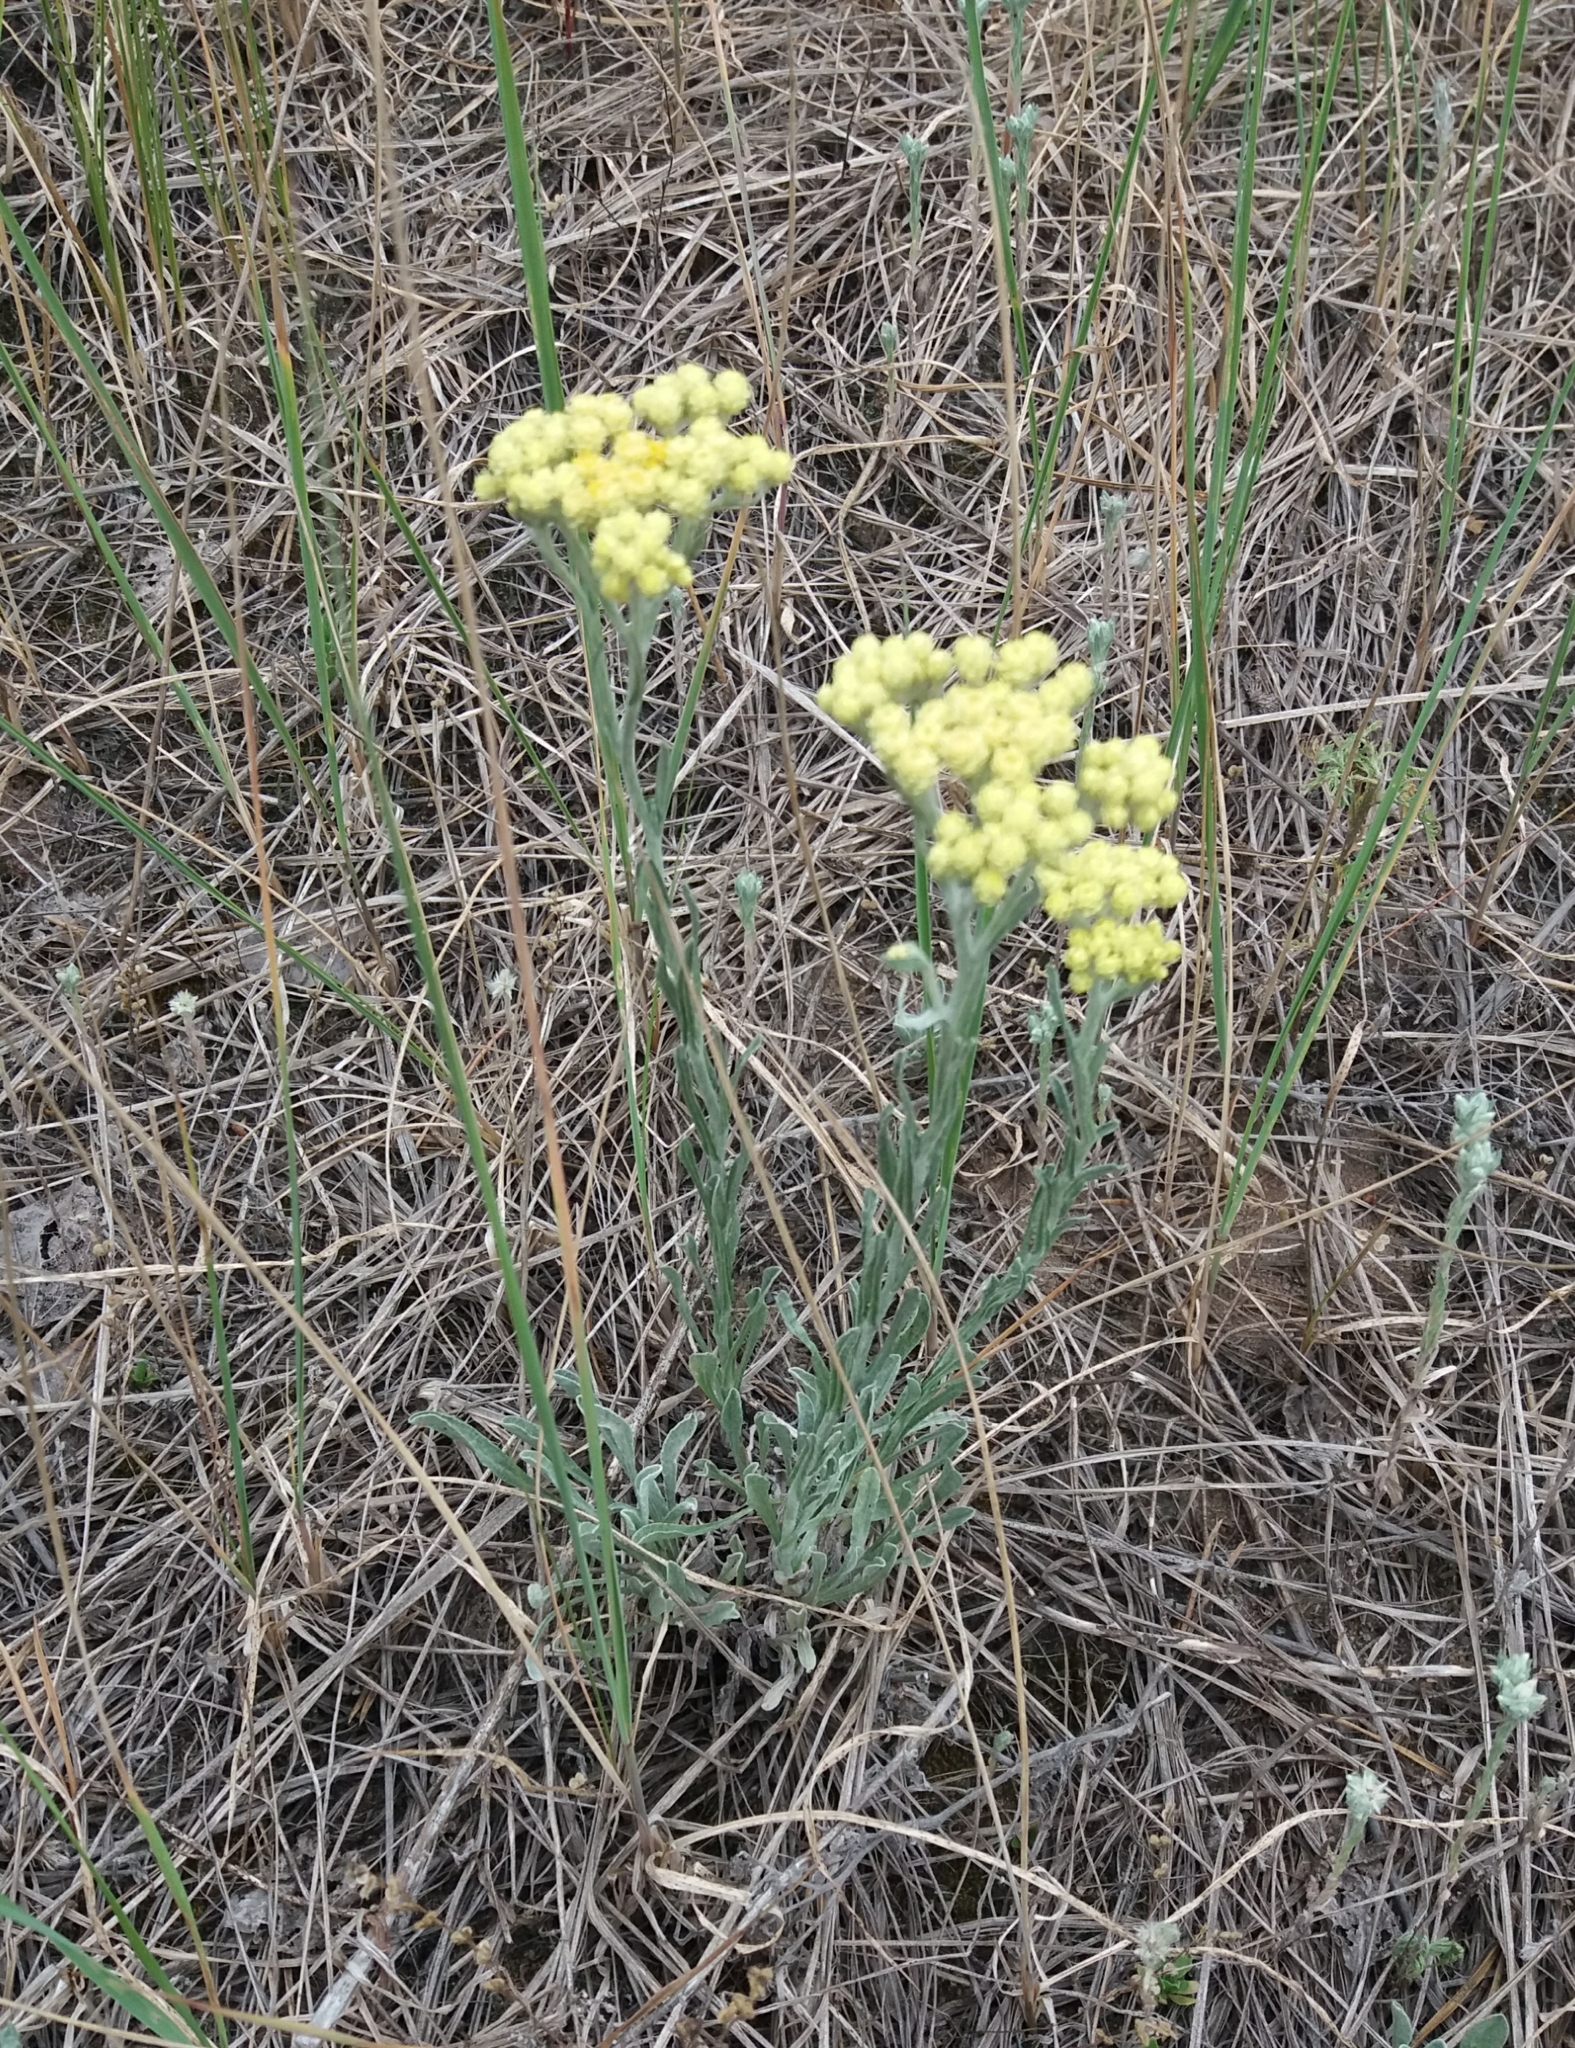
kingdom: Plantae
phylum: Tracheophyta
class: Magnoliopsida
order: Asterales
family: Asteraceae
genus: Helichrysum
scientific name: Helichrysum arenarium
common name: Strawflower
